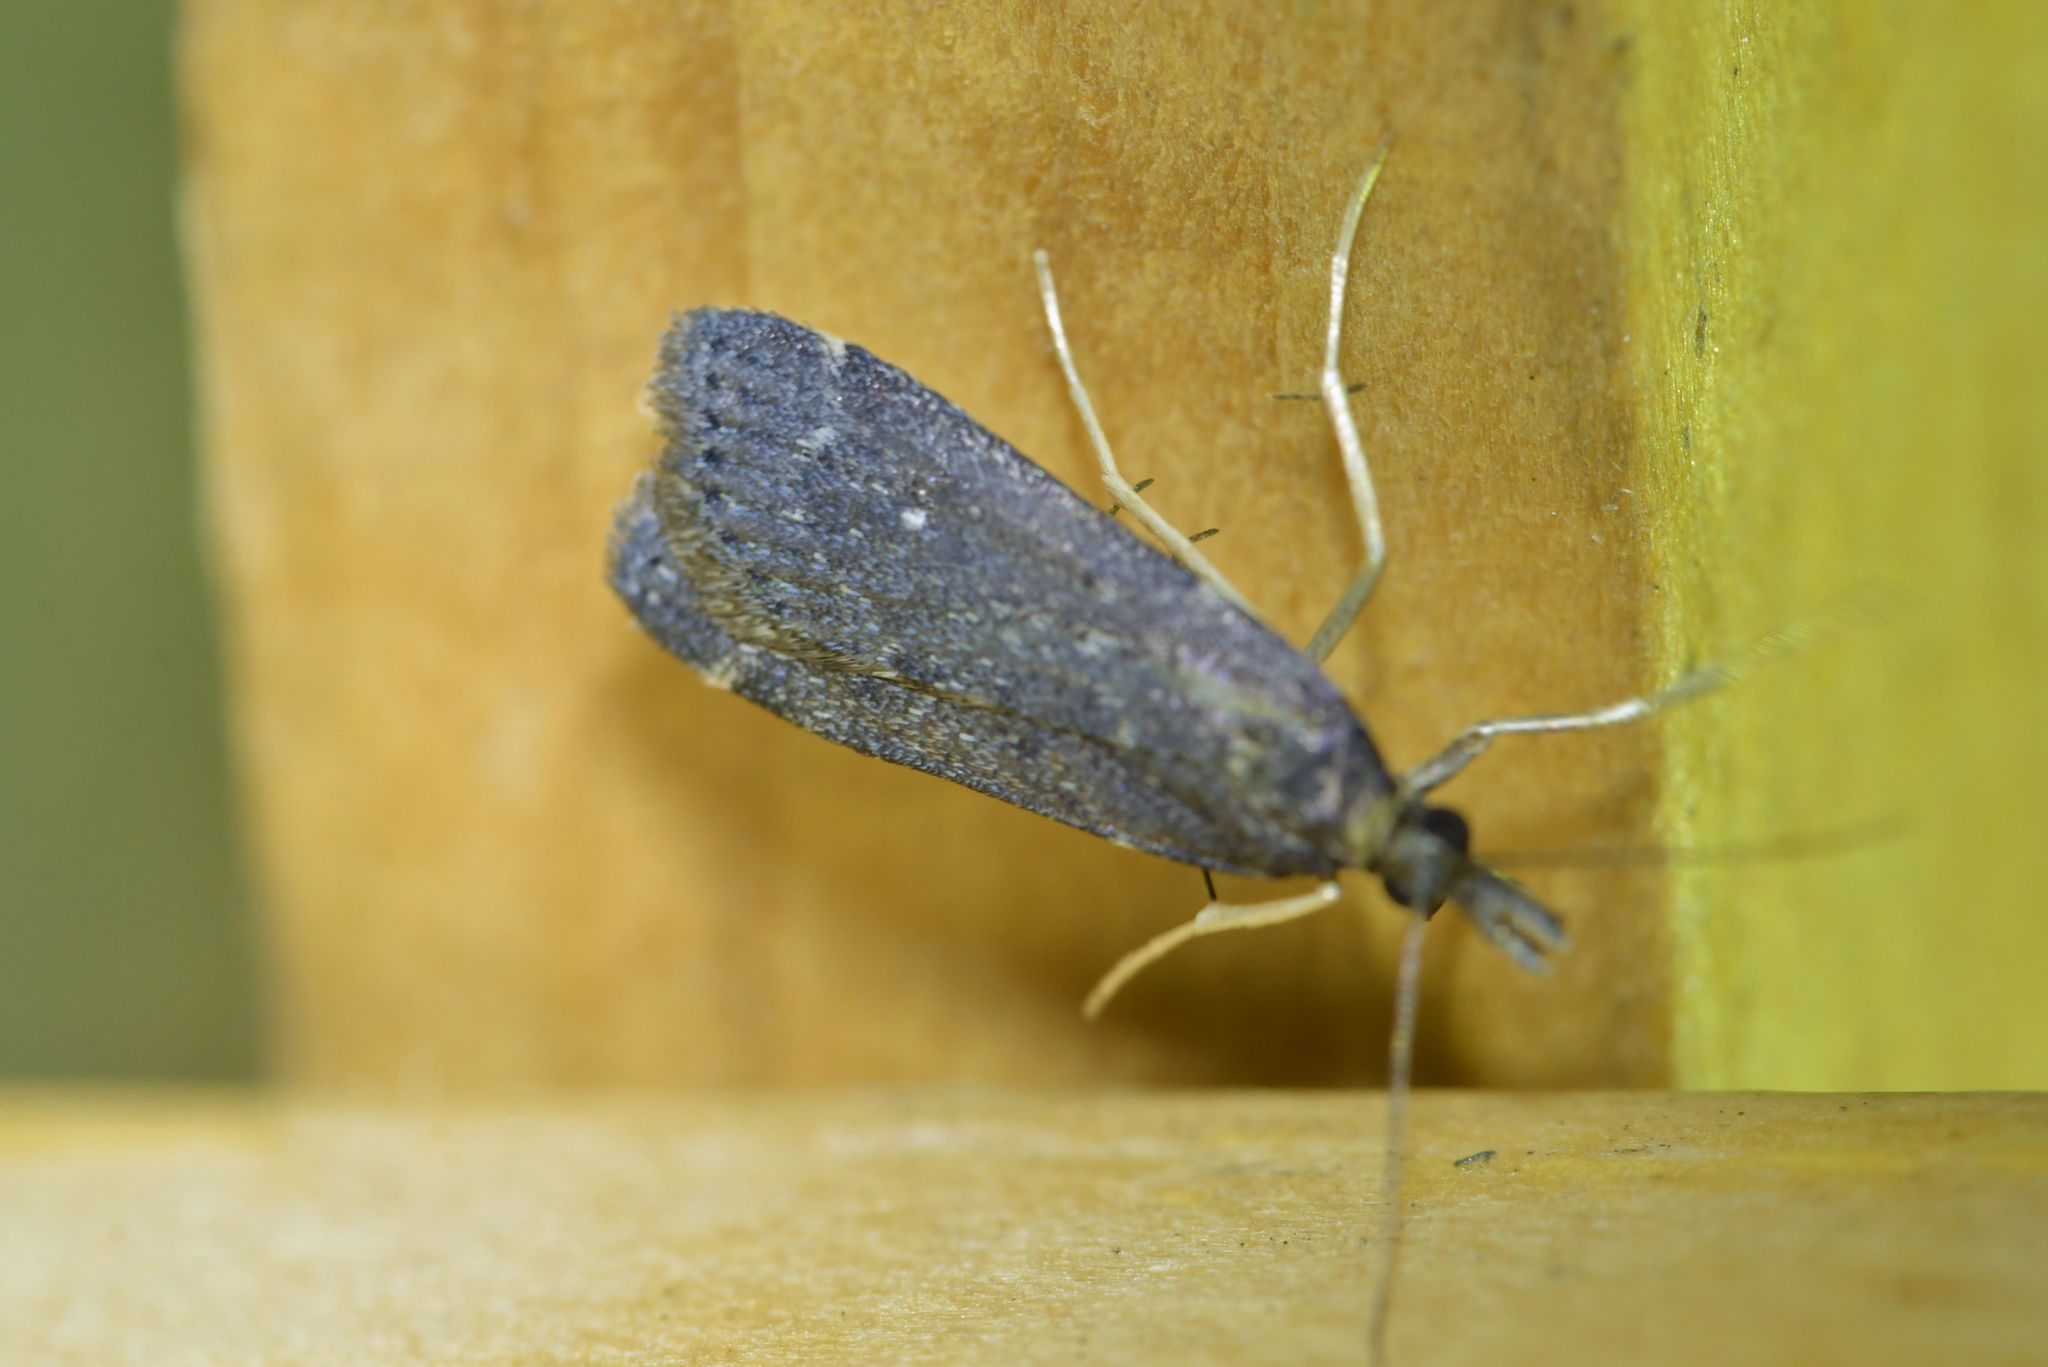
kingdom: Animalia
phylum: Arthropoda
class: Insecta
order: Lepidoptera
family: Crambidae
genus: Eudonia
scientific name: Eudonia oculata
